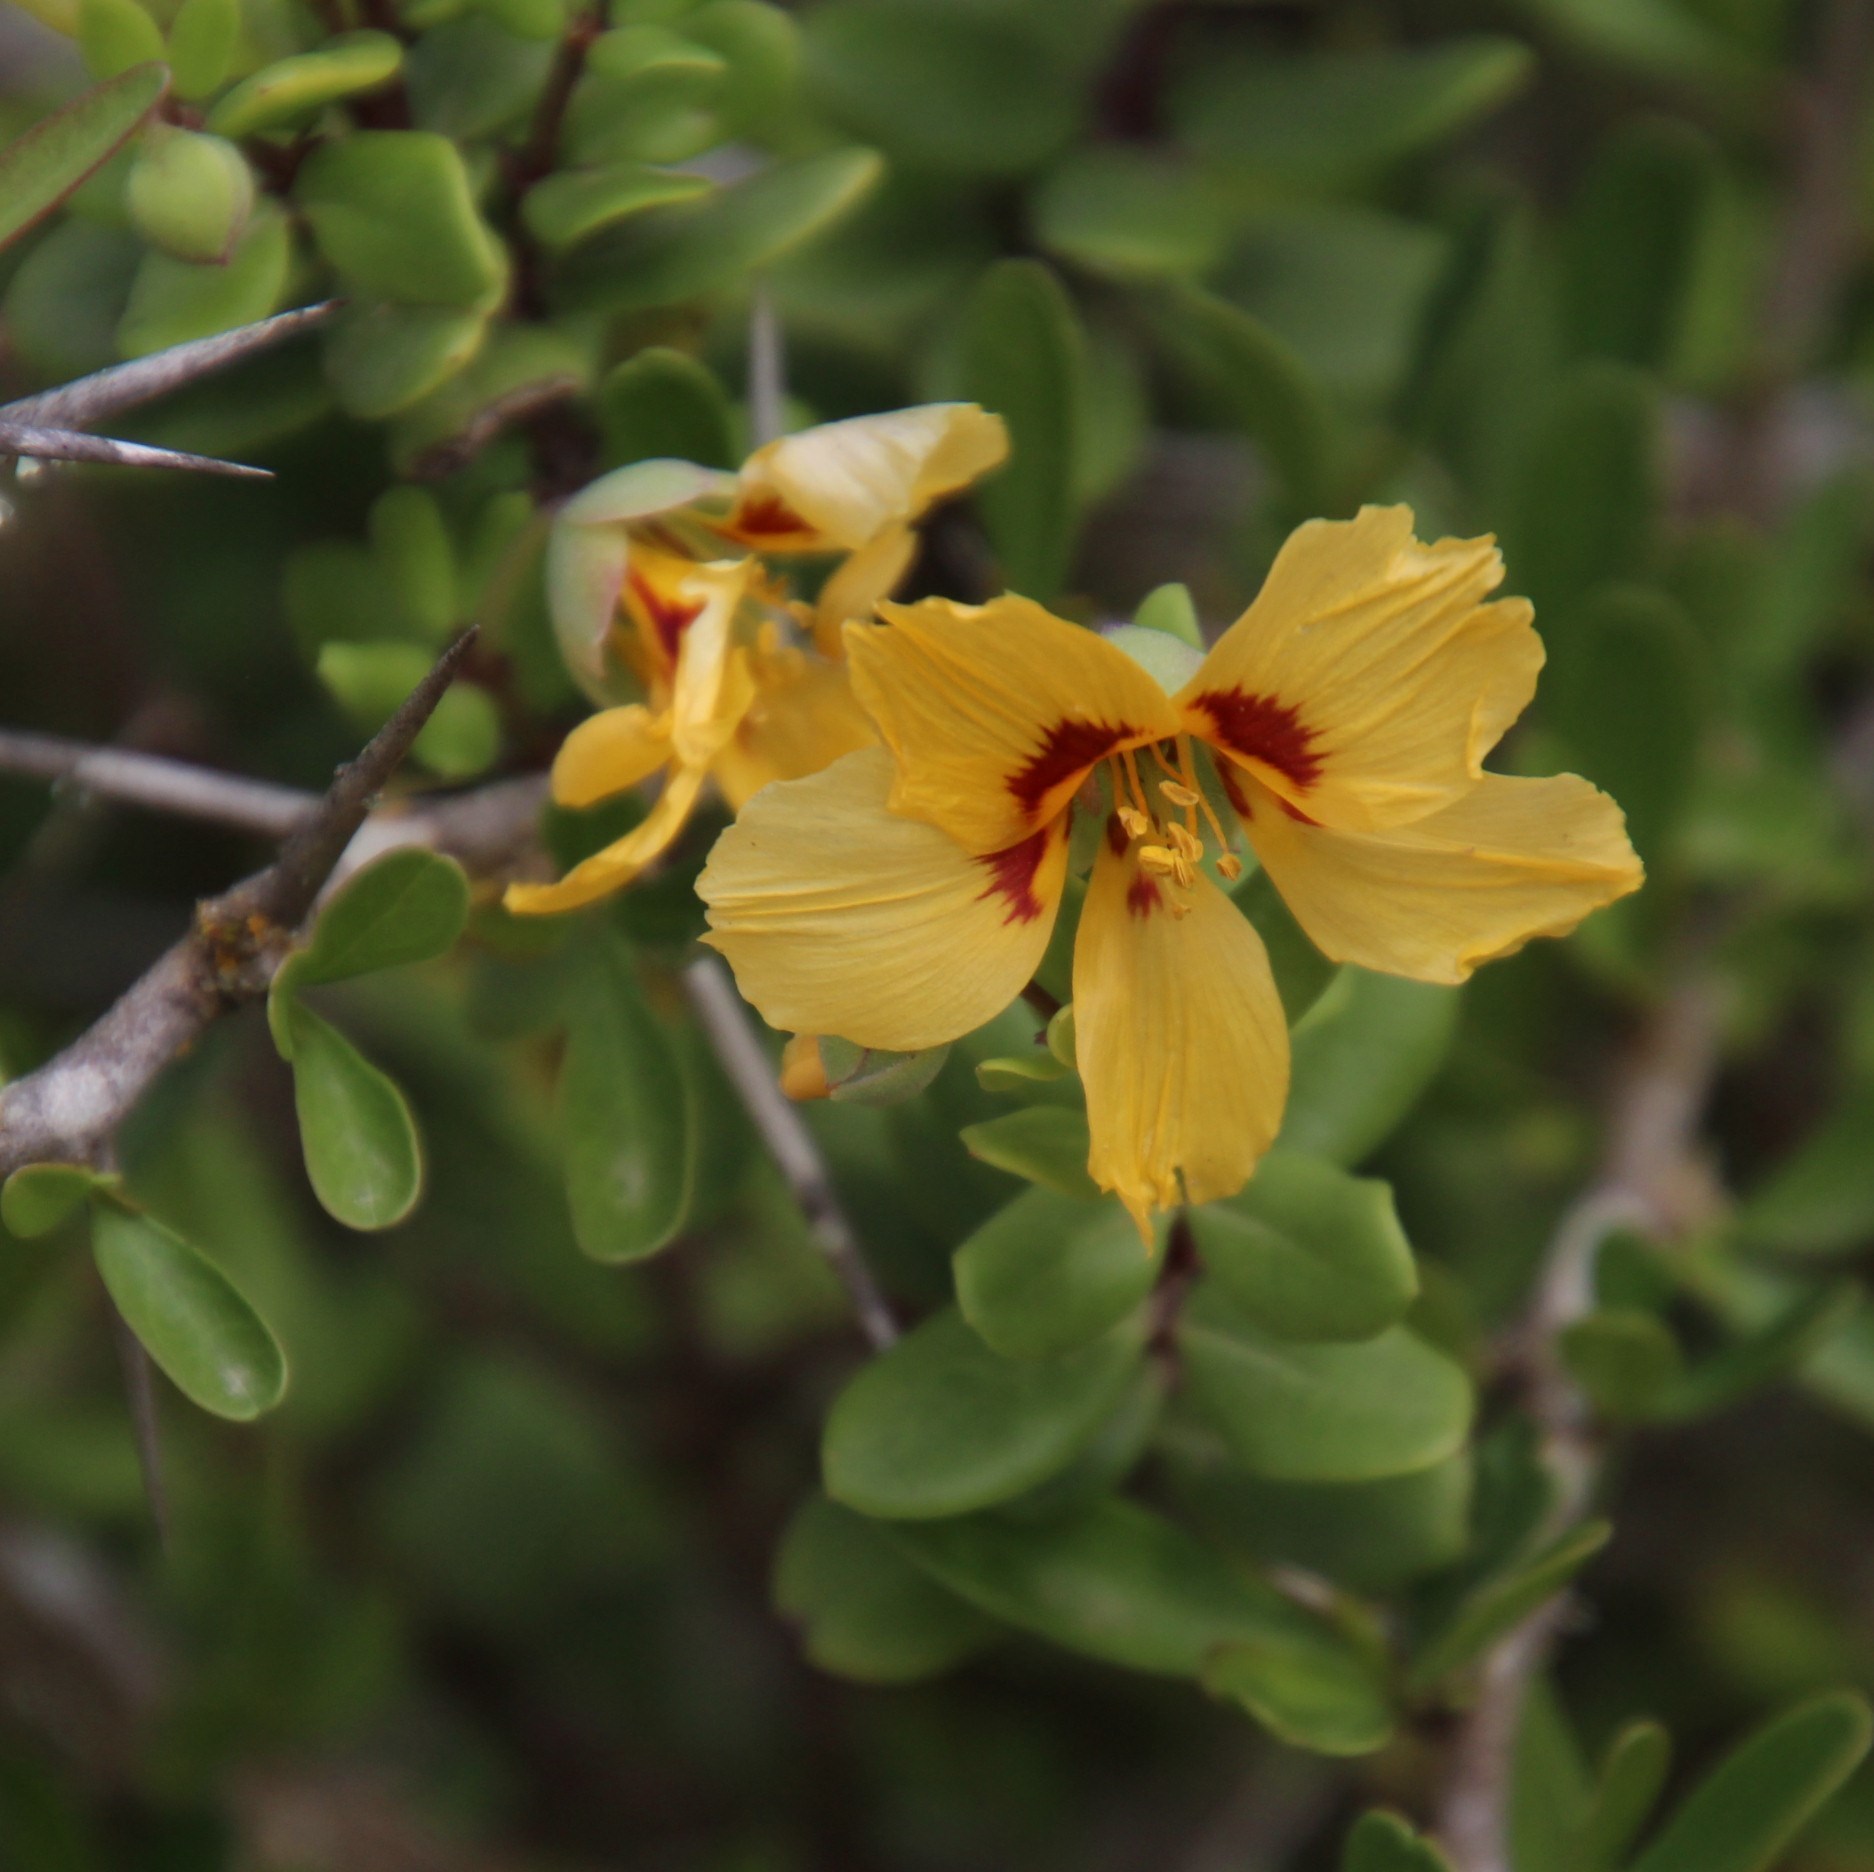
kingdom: Plantae
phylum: Tracheophyta
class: Magnoliopsida
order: Zygophyllales
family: Zygophyllaceae
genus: Roepera
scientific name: Roepera foetida
